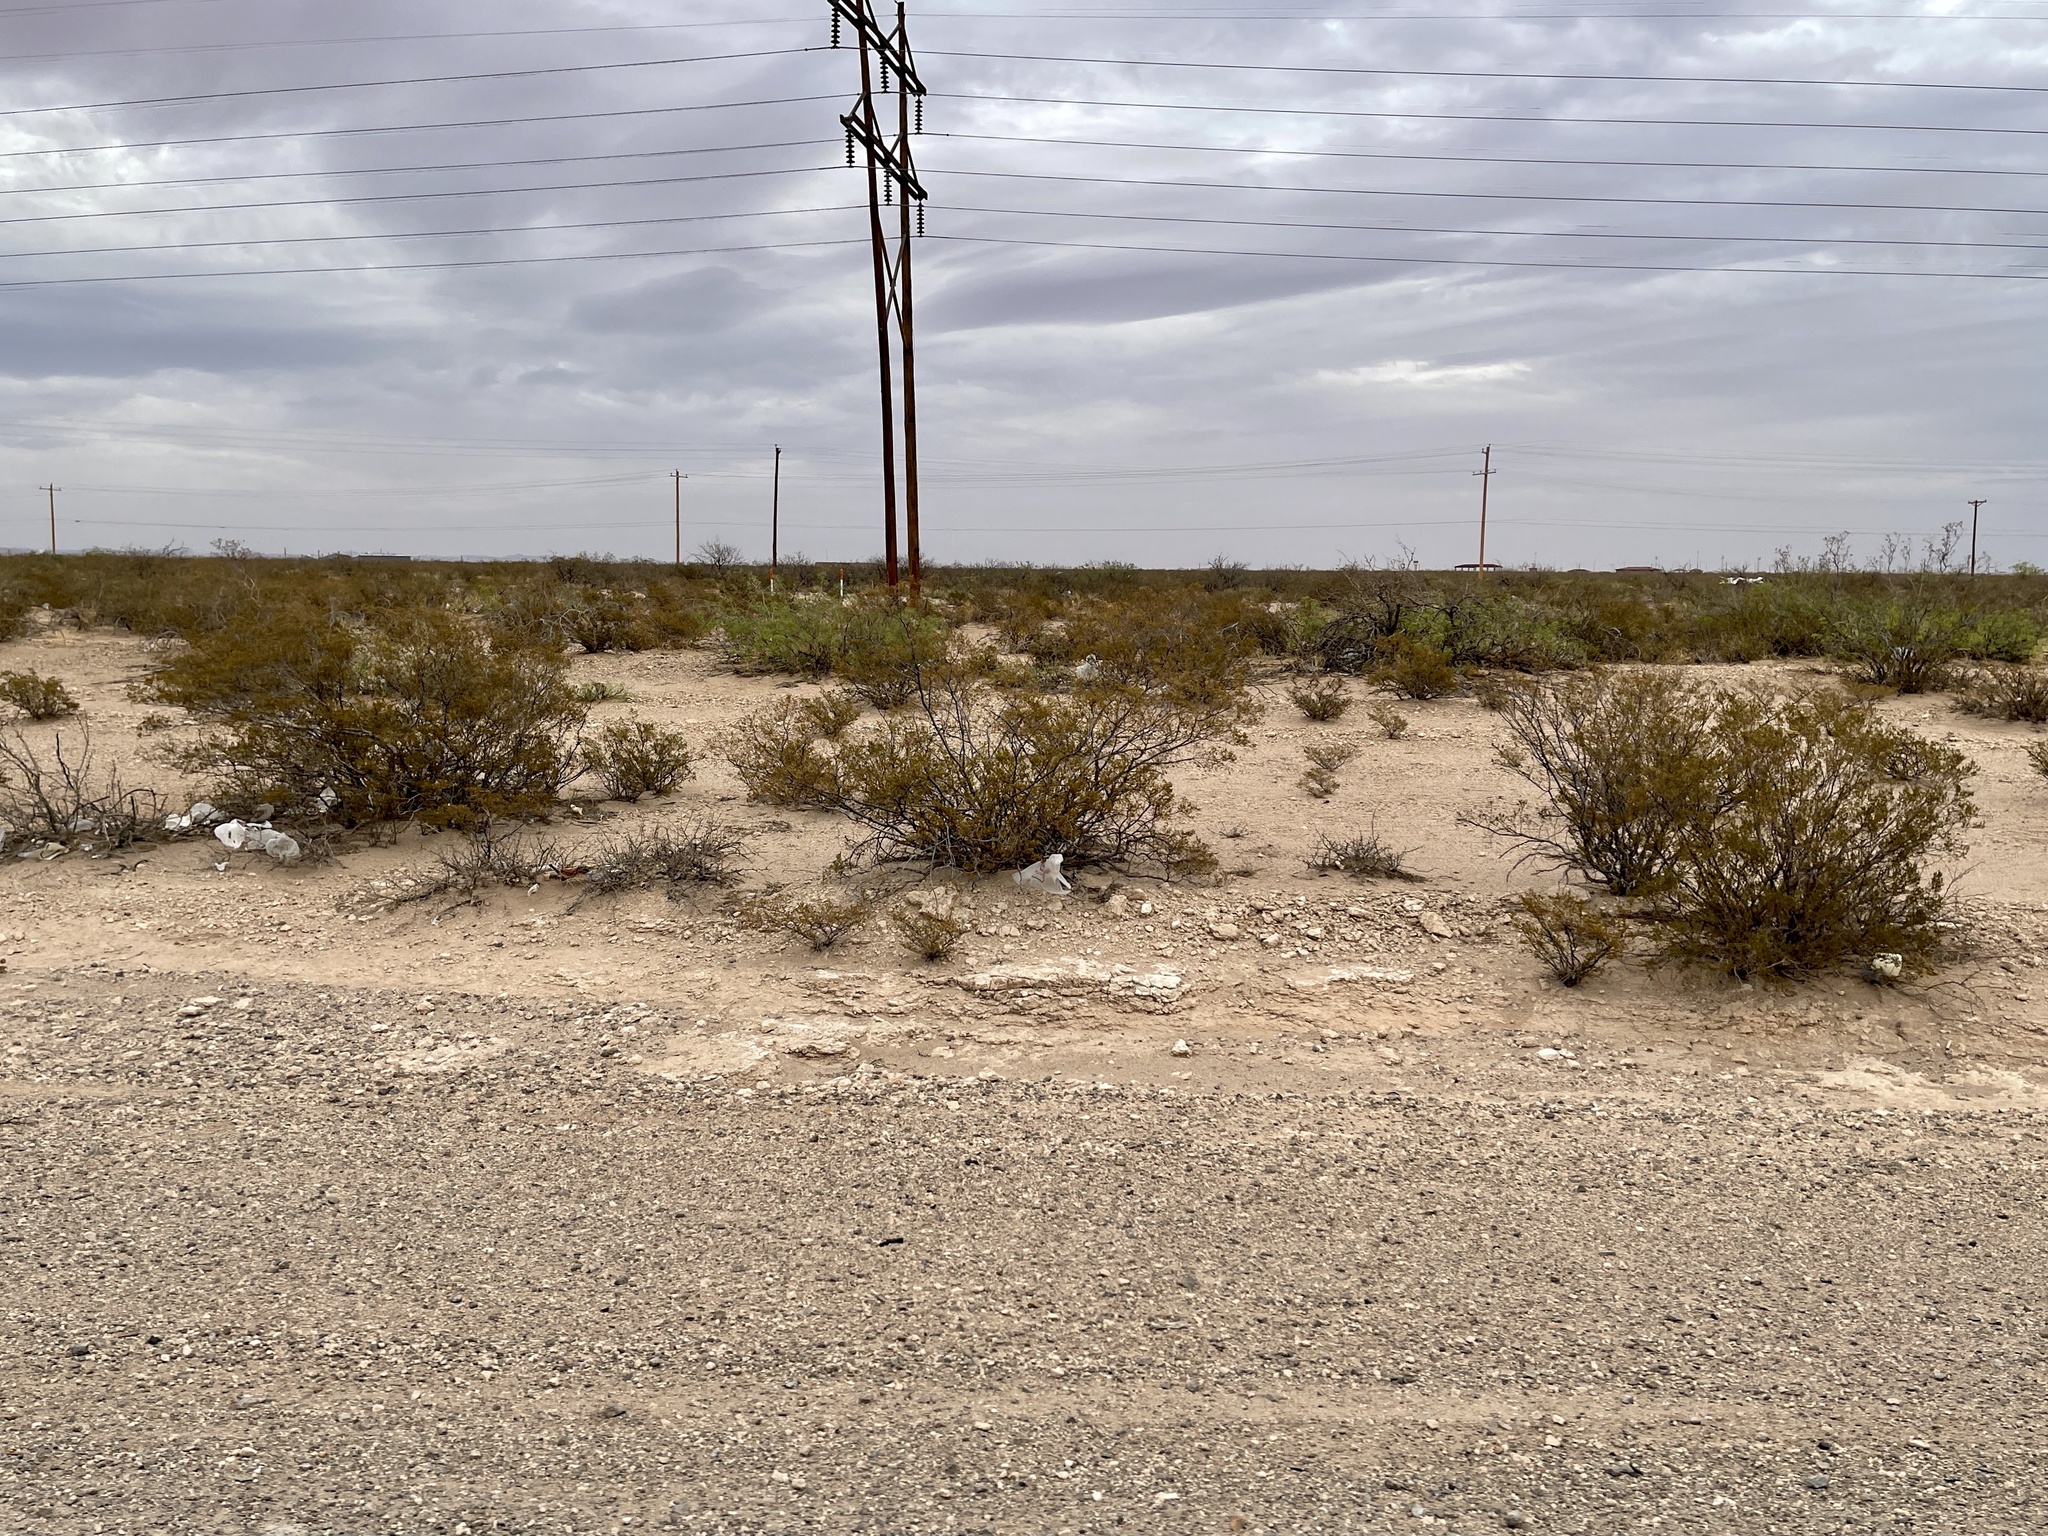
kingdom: Plantae
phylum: Tracheophyta
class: Magnoliopsida
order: Zygophyllales
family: Zygophyllaceae
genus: Larrea
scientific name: Larrea tridentata
